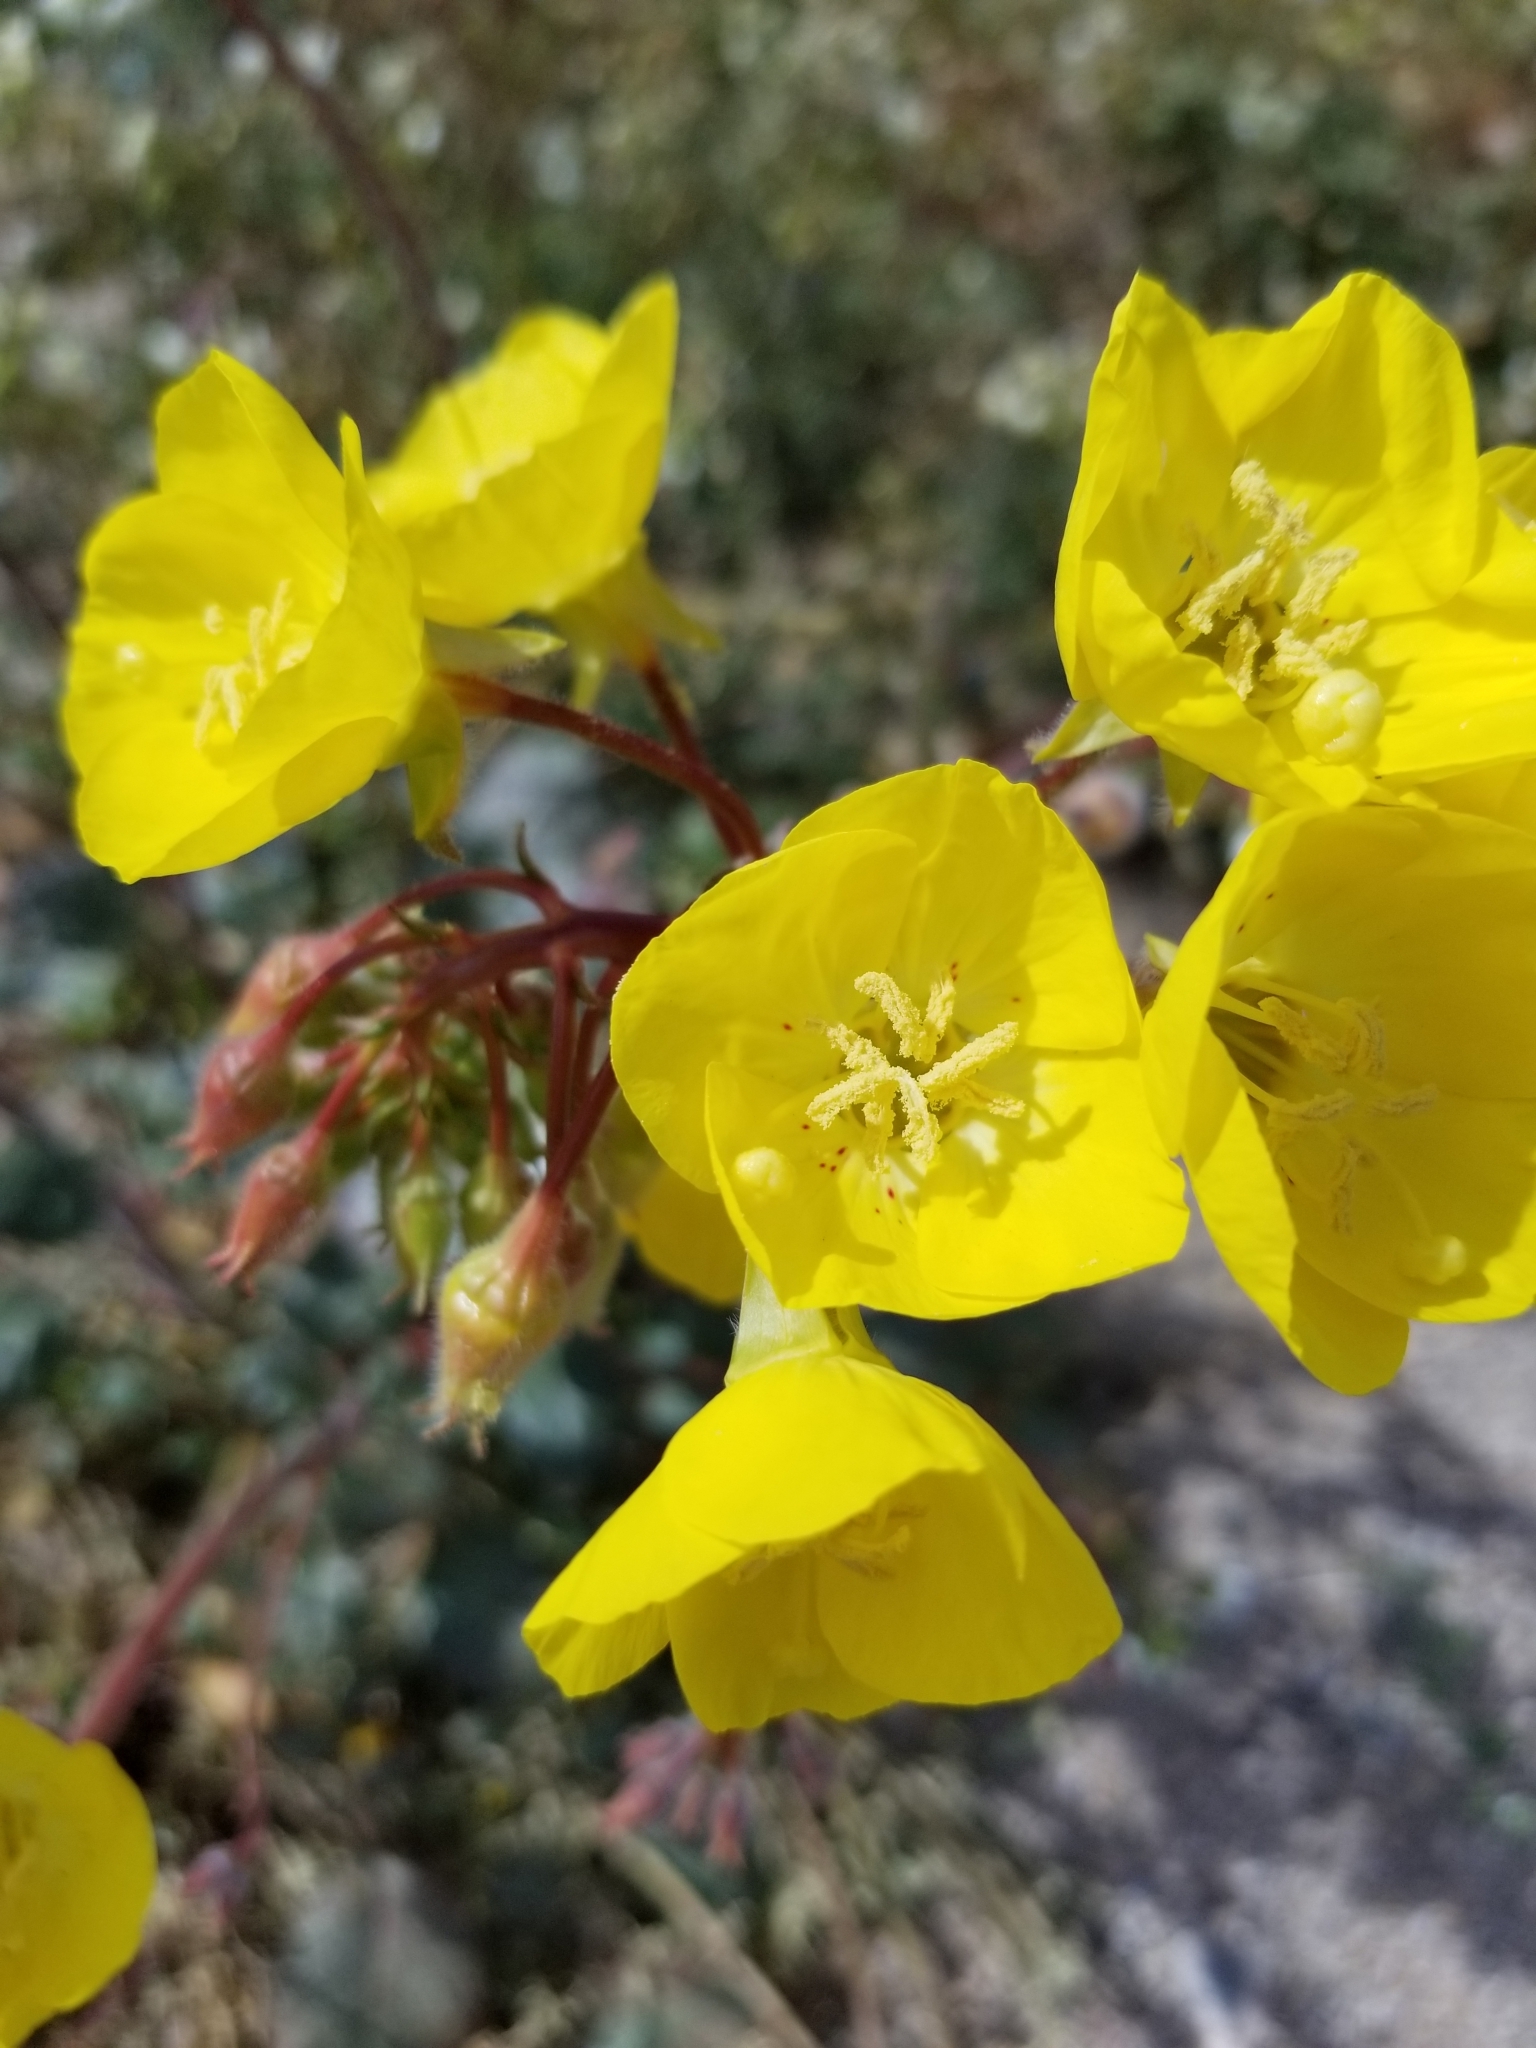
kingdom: Plantae
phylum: Tracheophyta
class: Magnoliopsida
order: Myrtales
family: Onagraceae
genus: Chylismia
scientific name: Chylismia brevipes
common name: Yellow cups
